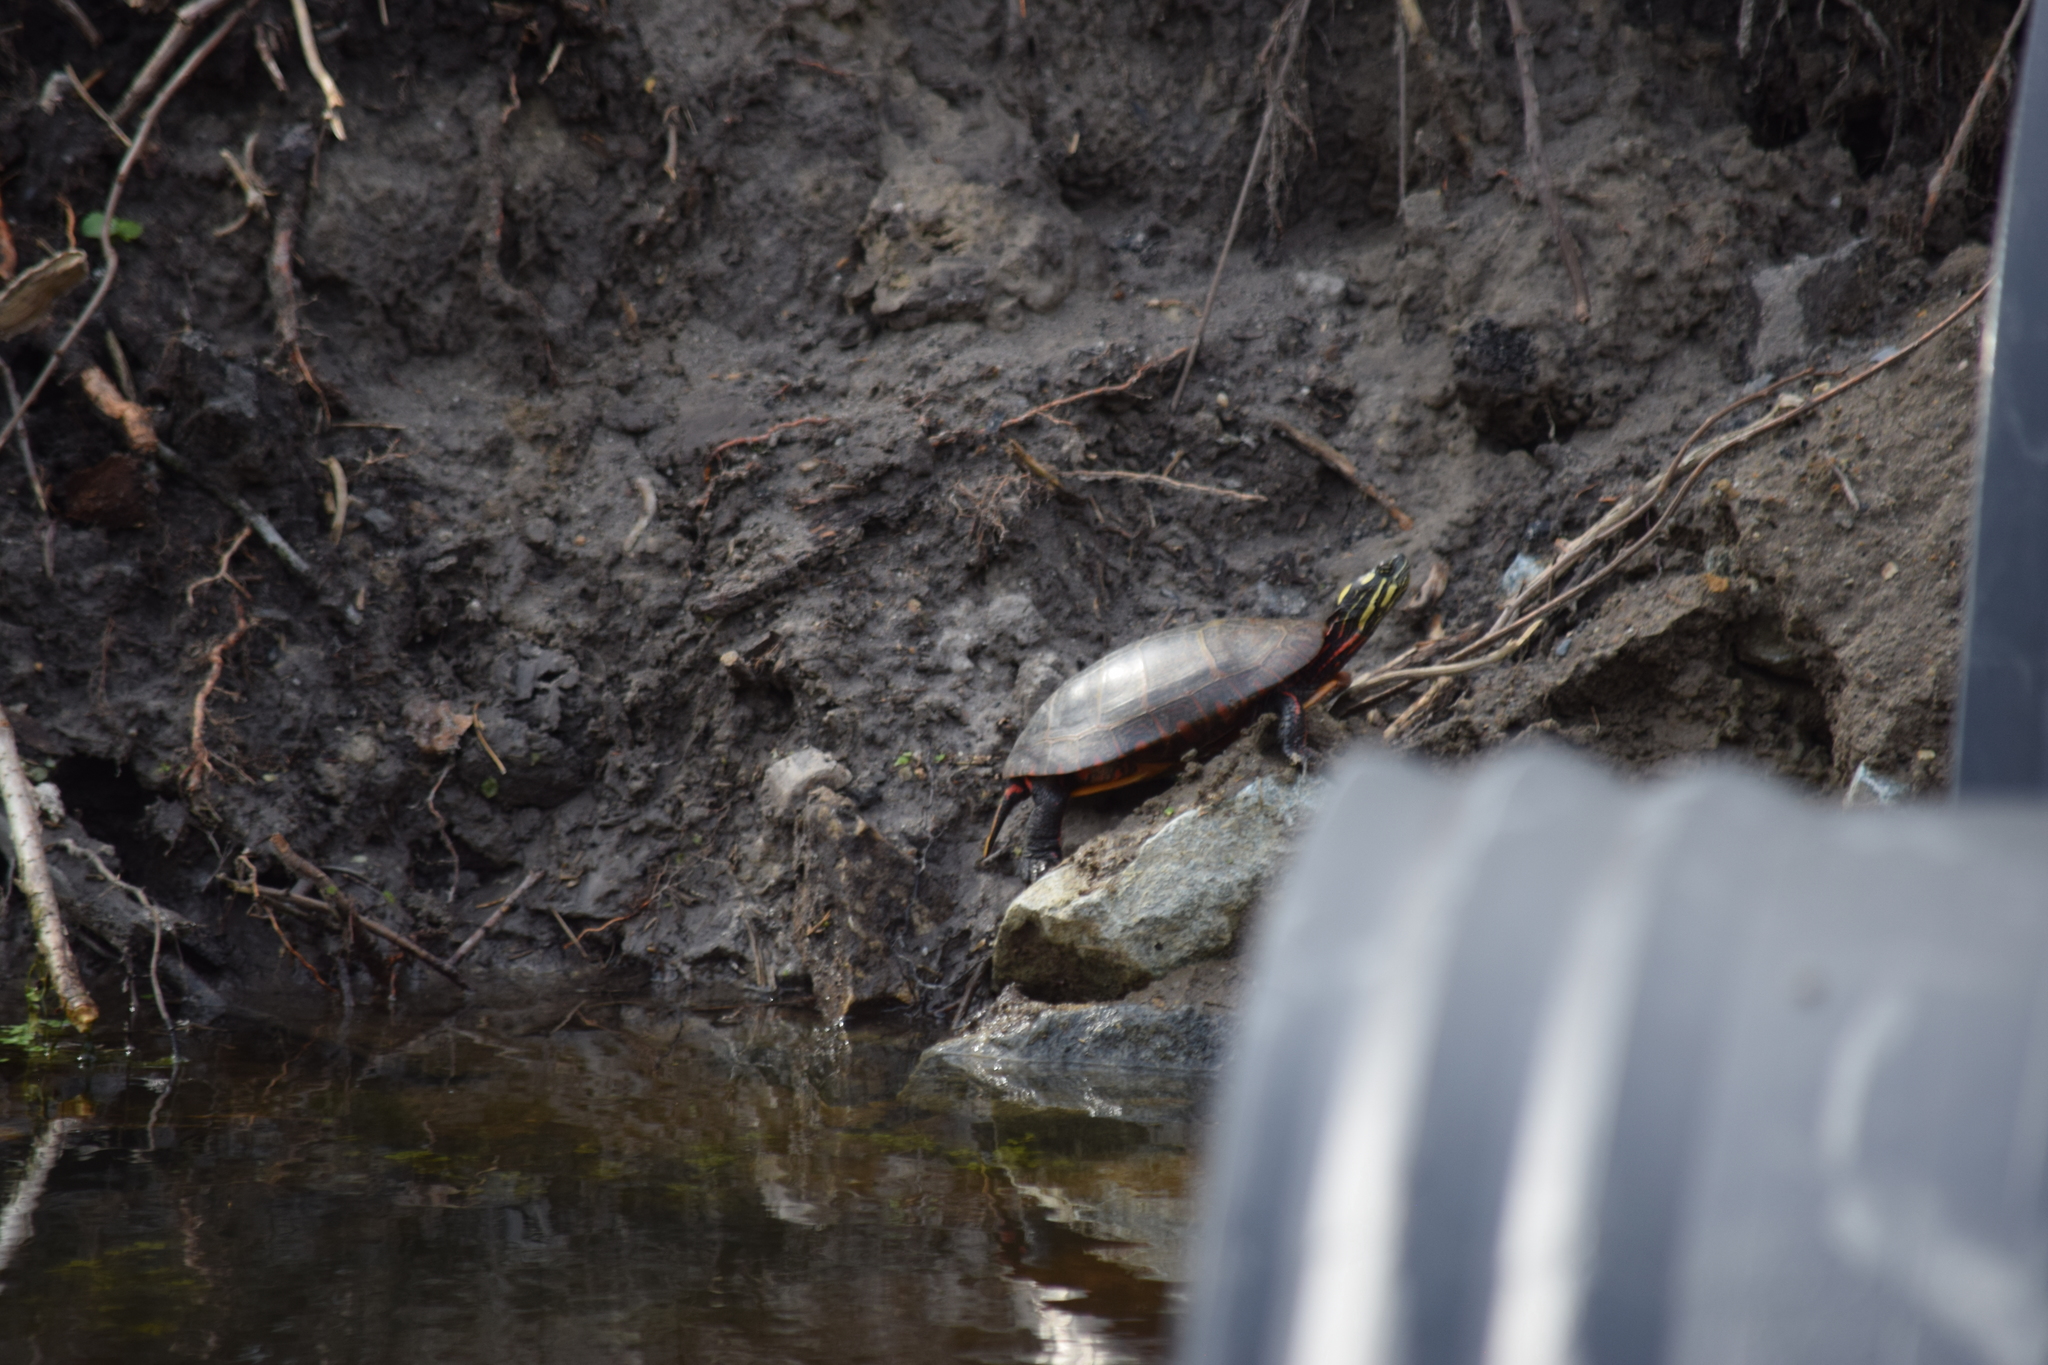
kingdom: Animalia
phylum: Chordata
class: Testudines
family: Emydidae
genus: Chrysemys
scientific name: Chrysemys picta
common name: Painted turtle
